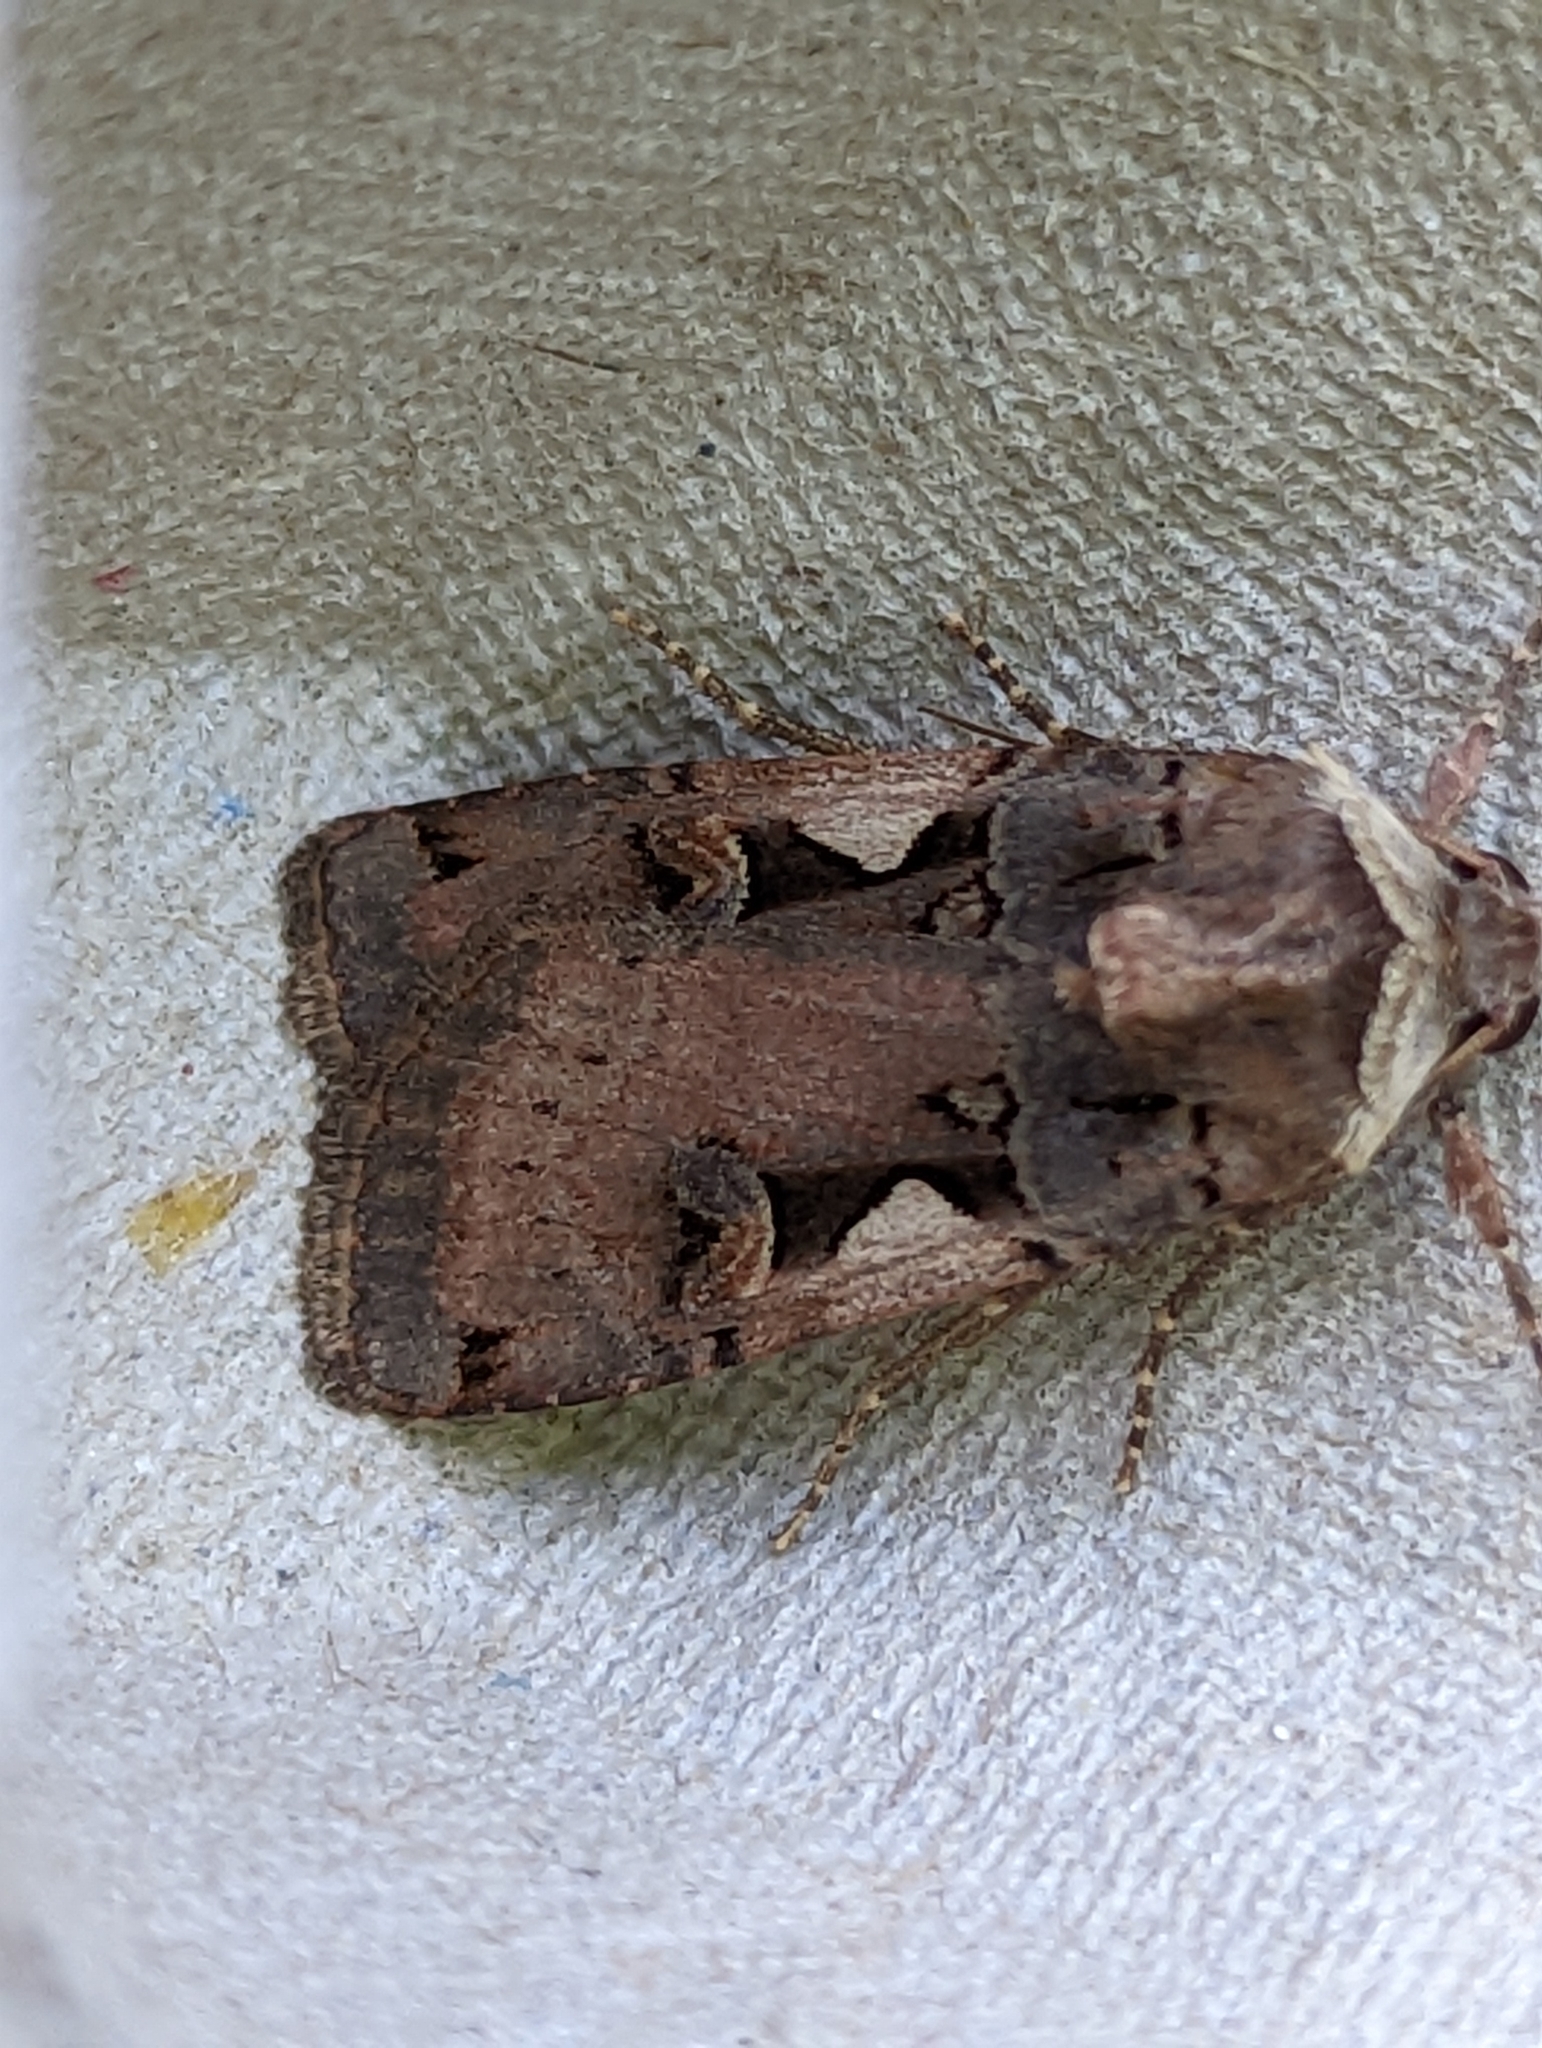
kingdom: Animalia
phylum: Arthropoda
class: Insecta
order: Lepidoptera
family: Noctuidae
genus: Xestia
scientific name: Xestia c-nigrum
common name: Setaceous hebrew character
